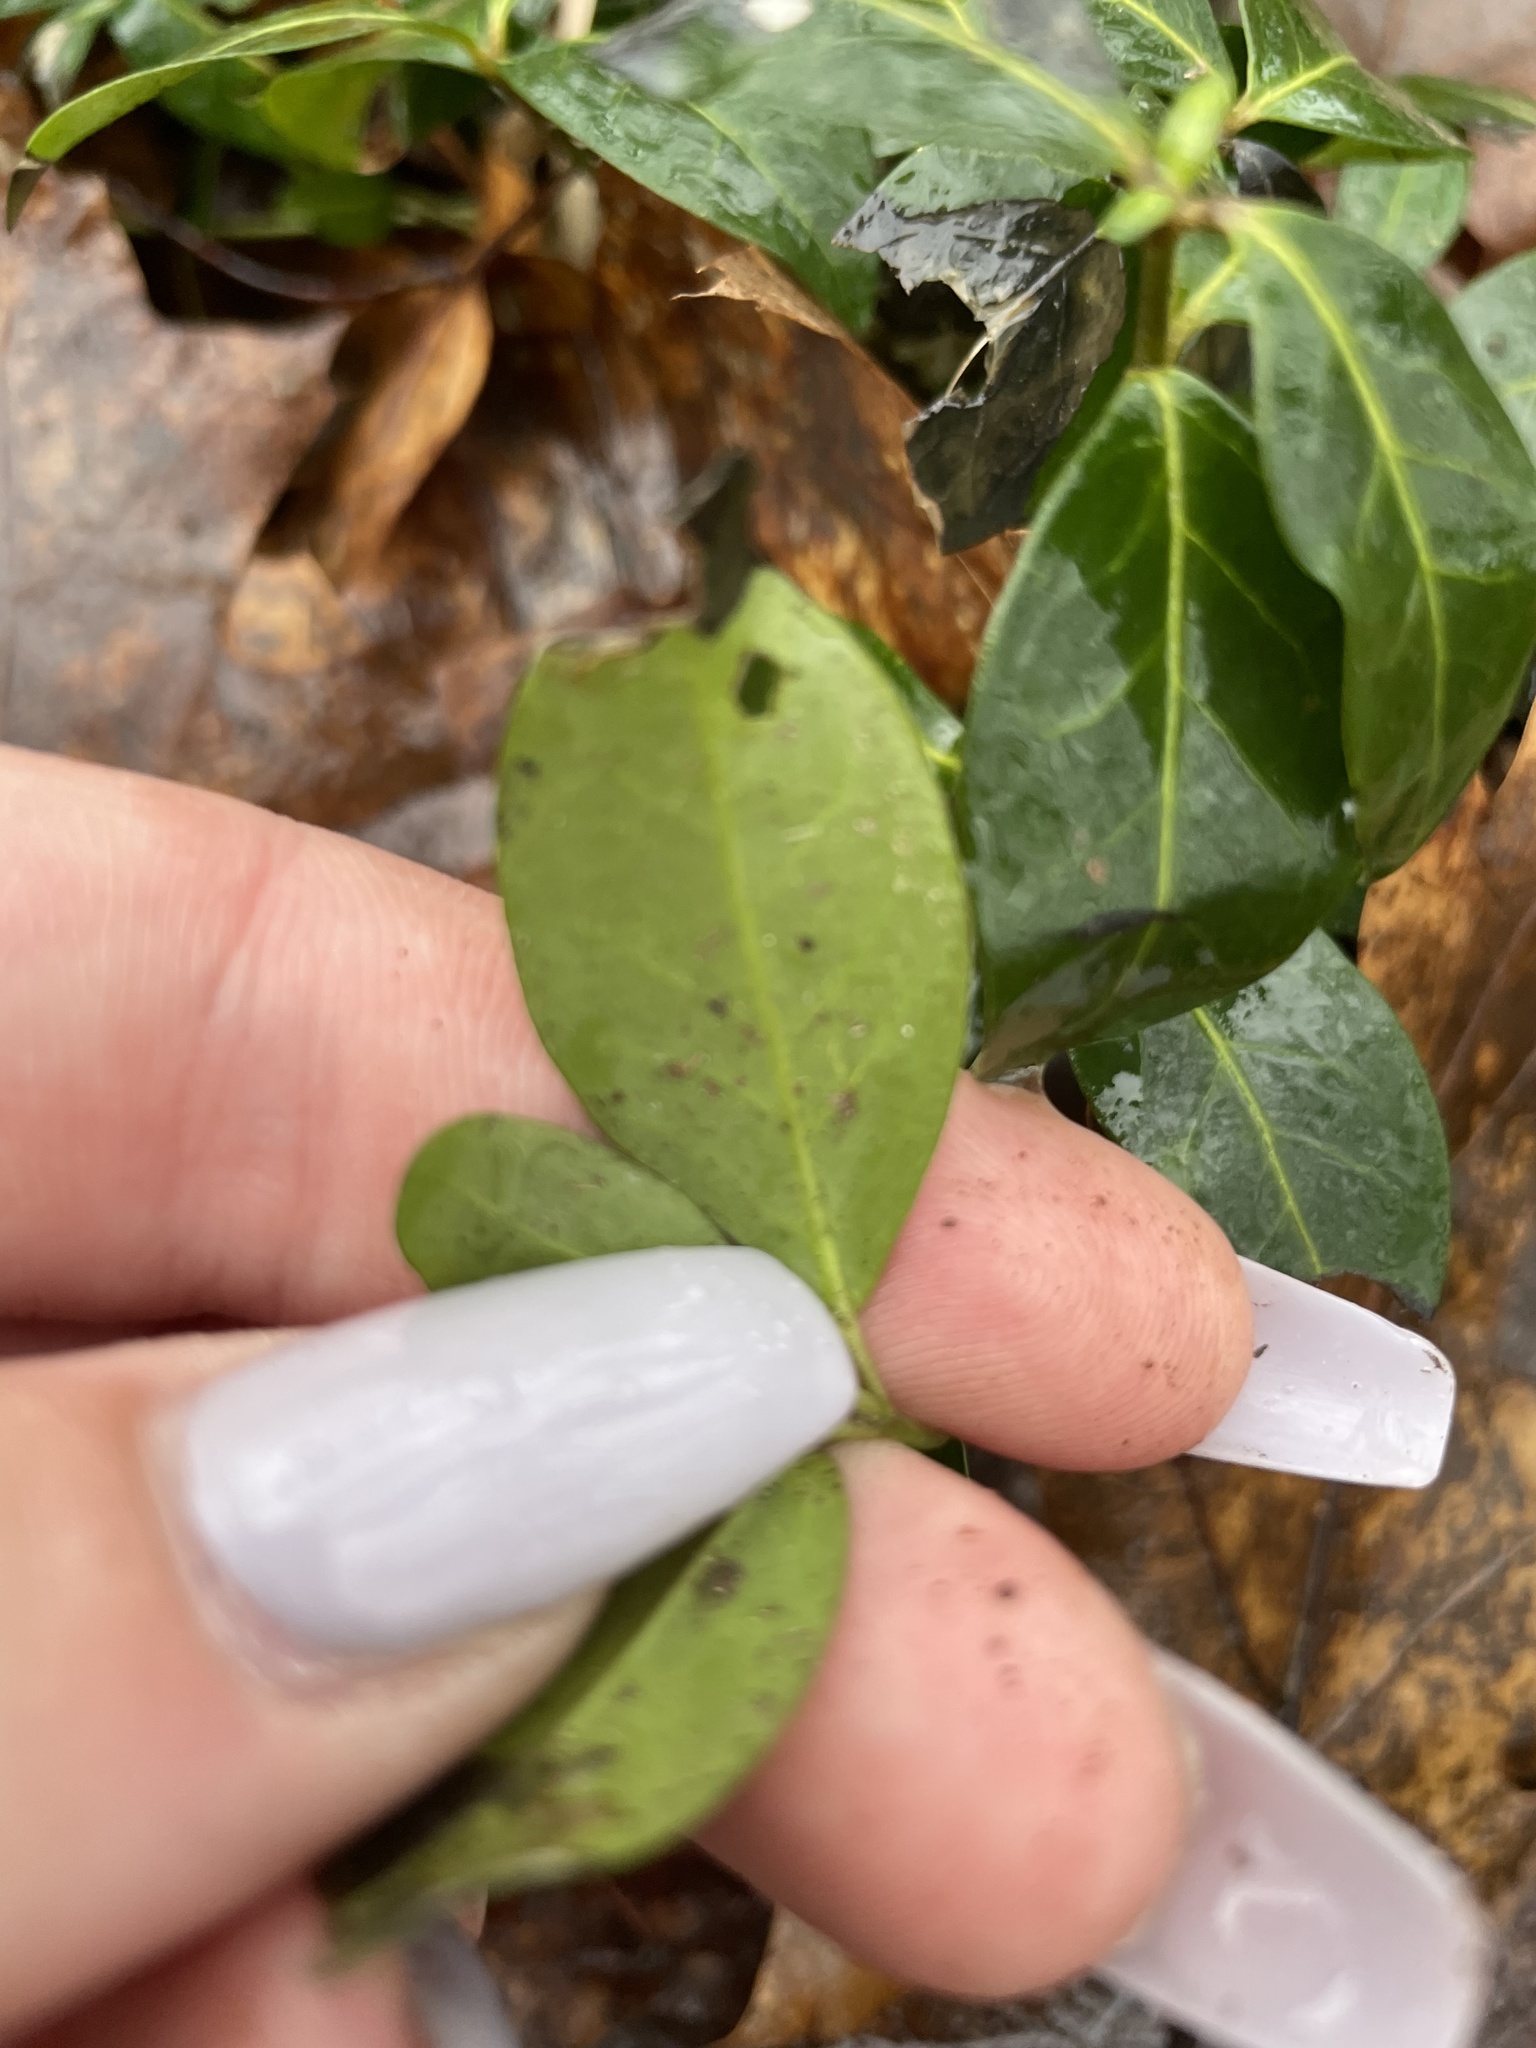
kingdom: Plantae
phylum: Tracheophyta
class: Magnoliopsida
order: Gentianales
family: Apocynaceae
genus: Vinca
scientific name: Vinca minor
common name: Lesser periwinkle
